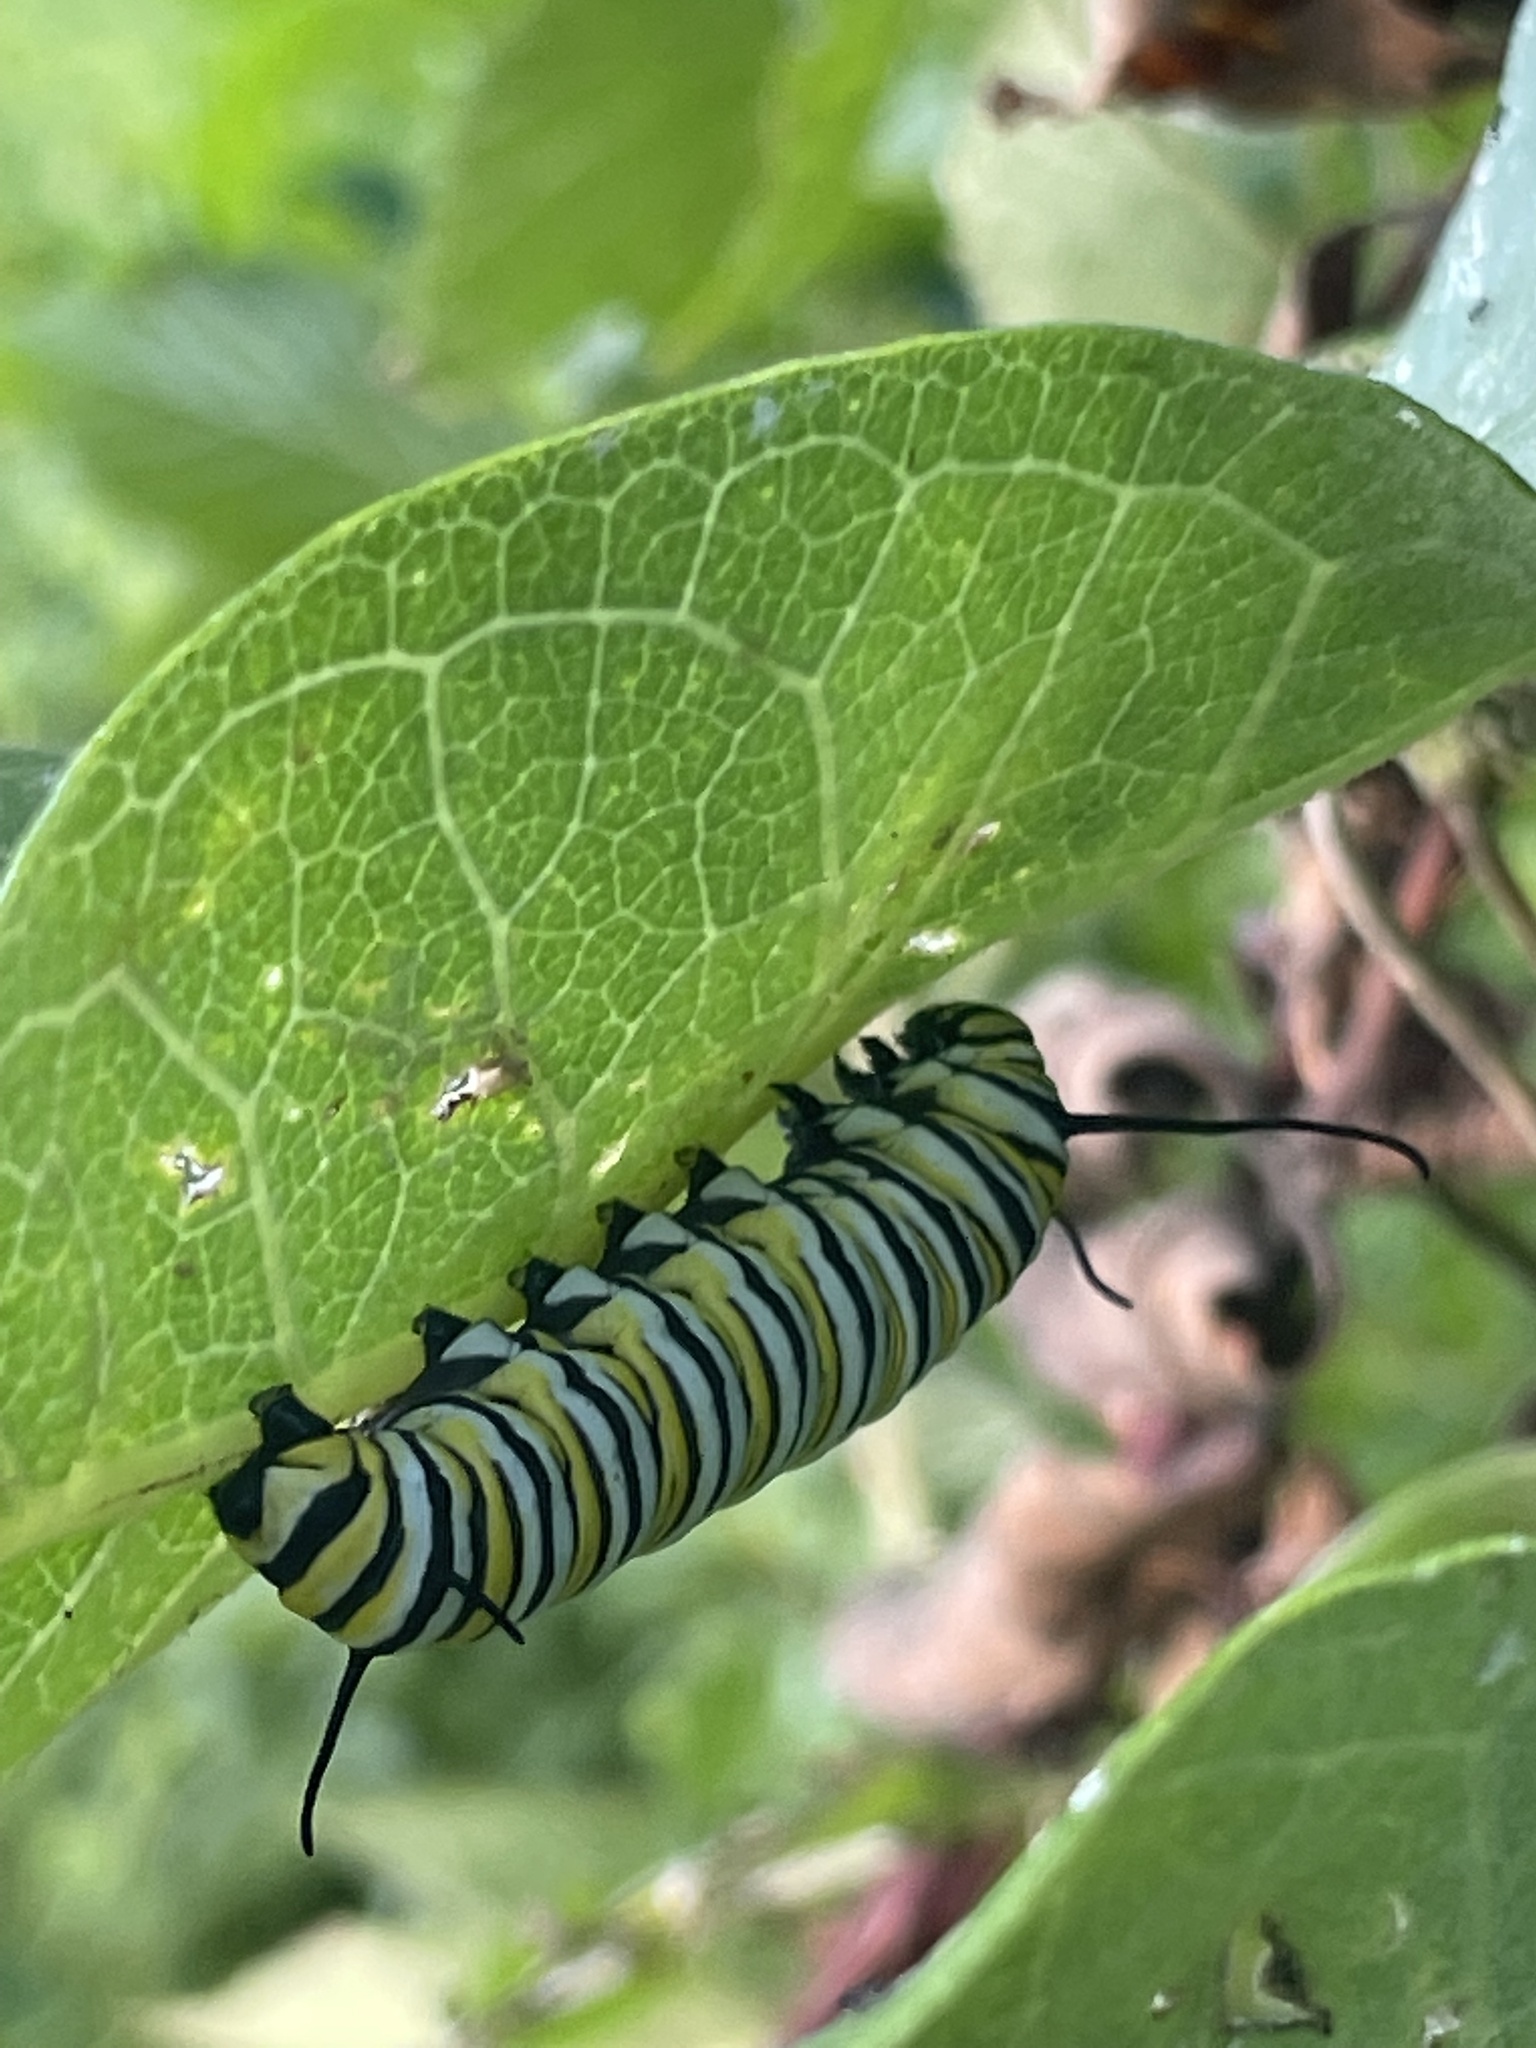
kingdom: Animalia
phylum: Arthropoda
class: Insecta
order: Lepidoptera
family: Nymphalidae
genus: Danaus
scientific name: Danaus plexippus
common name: Monarch
